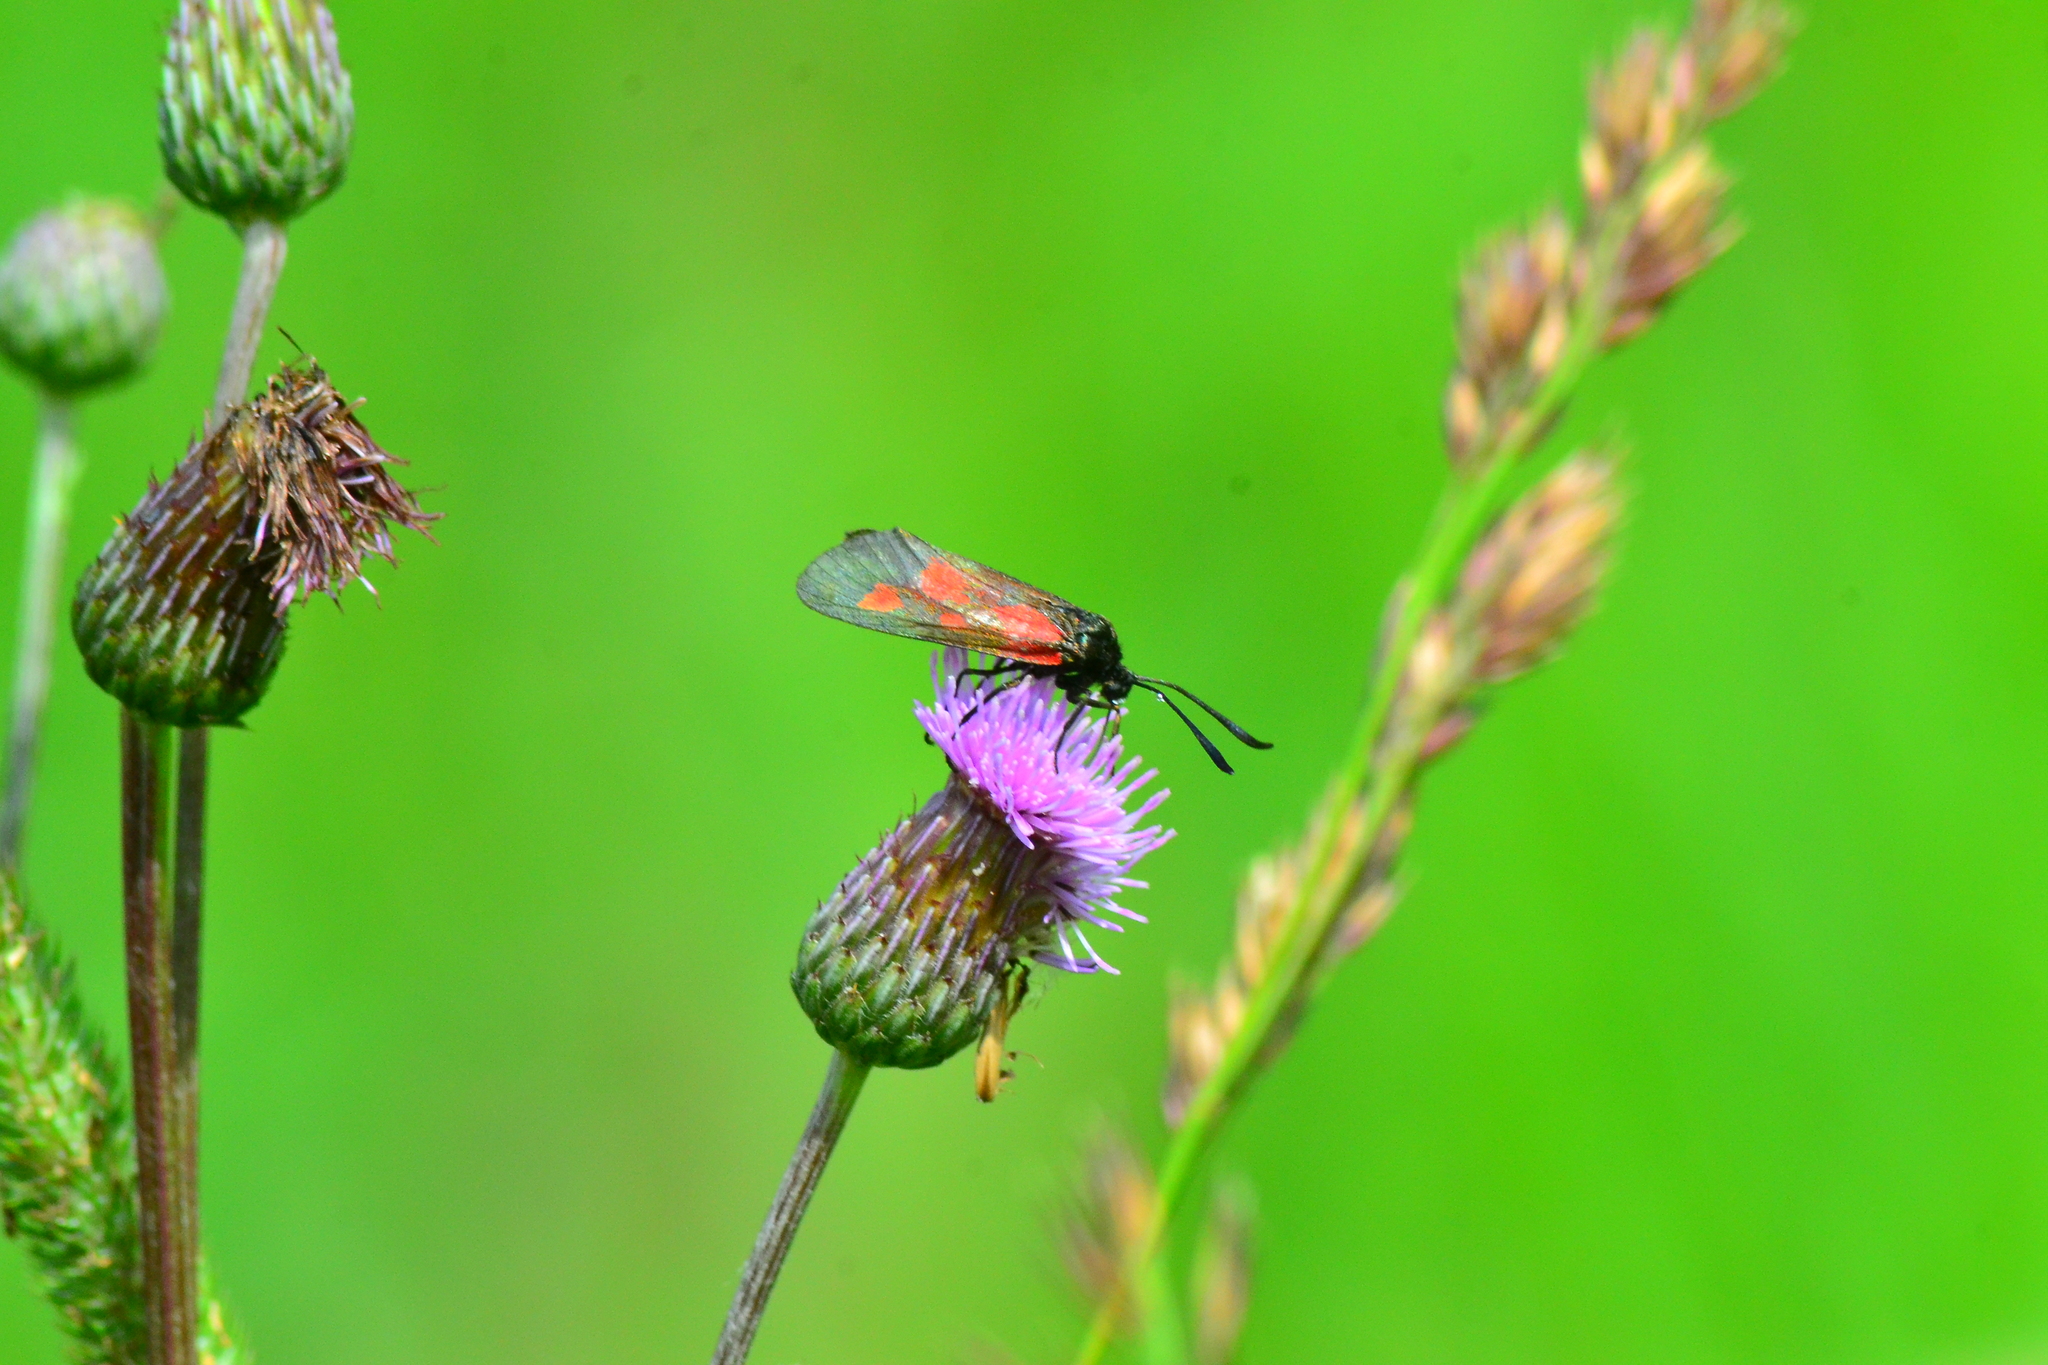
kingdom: Animalia
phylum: Arthropoda
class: Insecta
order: Lepidoptera
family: Zygaenidae
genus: Zygaena
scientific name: Zygaena viciae
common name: New forest burnet
